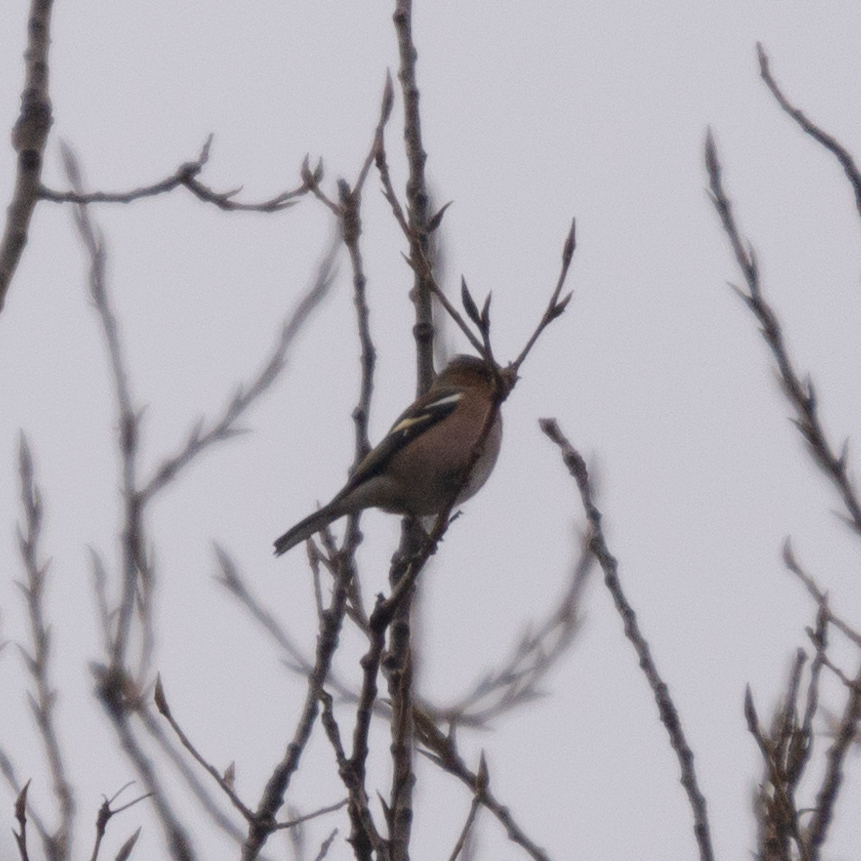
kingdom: Animalia
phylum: Chordata
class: Aves
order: Passeriformes
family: Fringillidae
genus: Fringilla
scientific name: Fringilla coelebs
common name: Common chaffinch
